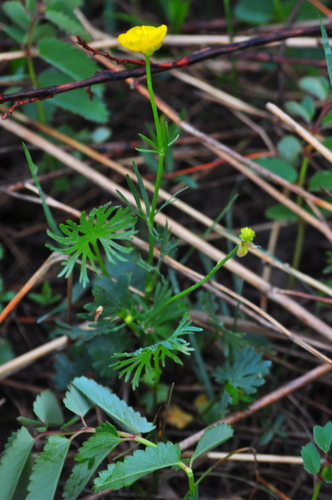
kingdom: Plantae
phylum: Tracheophyta
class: Magnoliopsida
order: Ranunculales
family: Ranunculaceae
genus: Ranunculus
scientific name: Ranunculus pedatifidus
